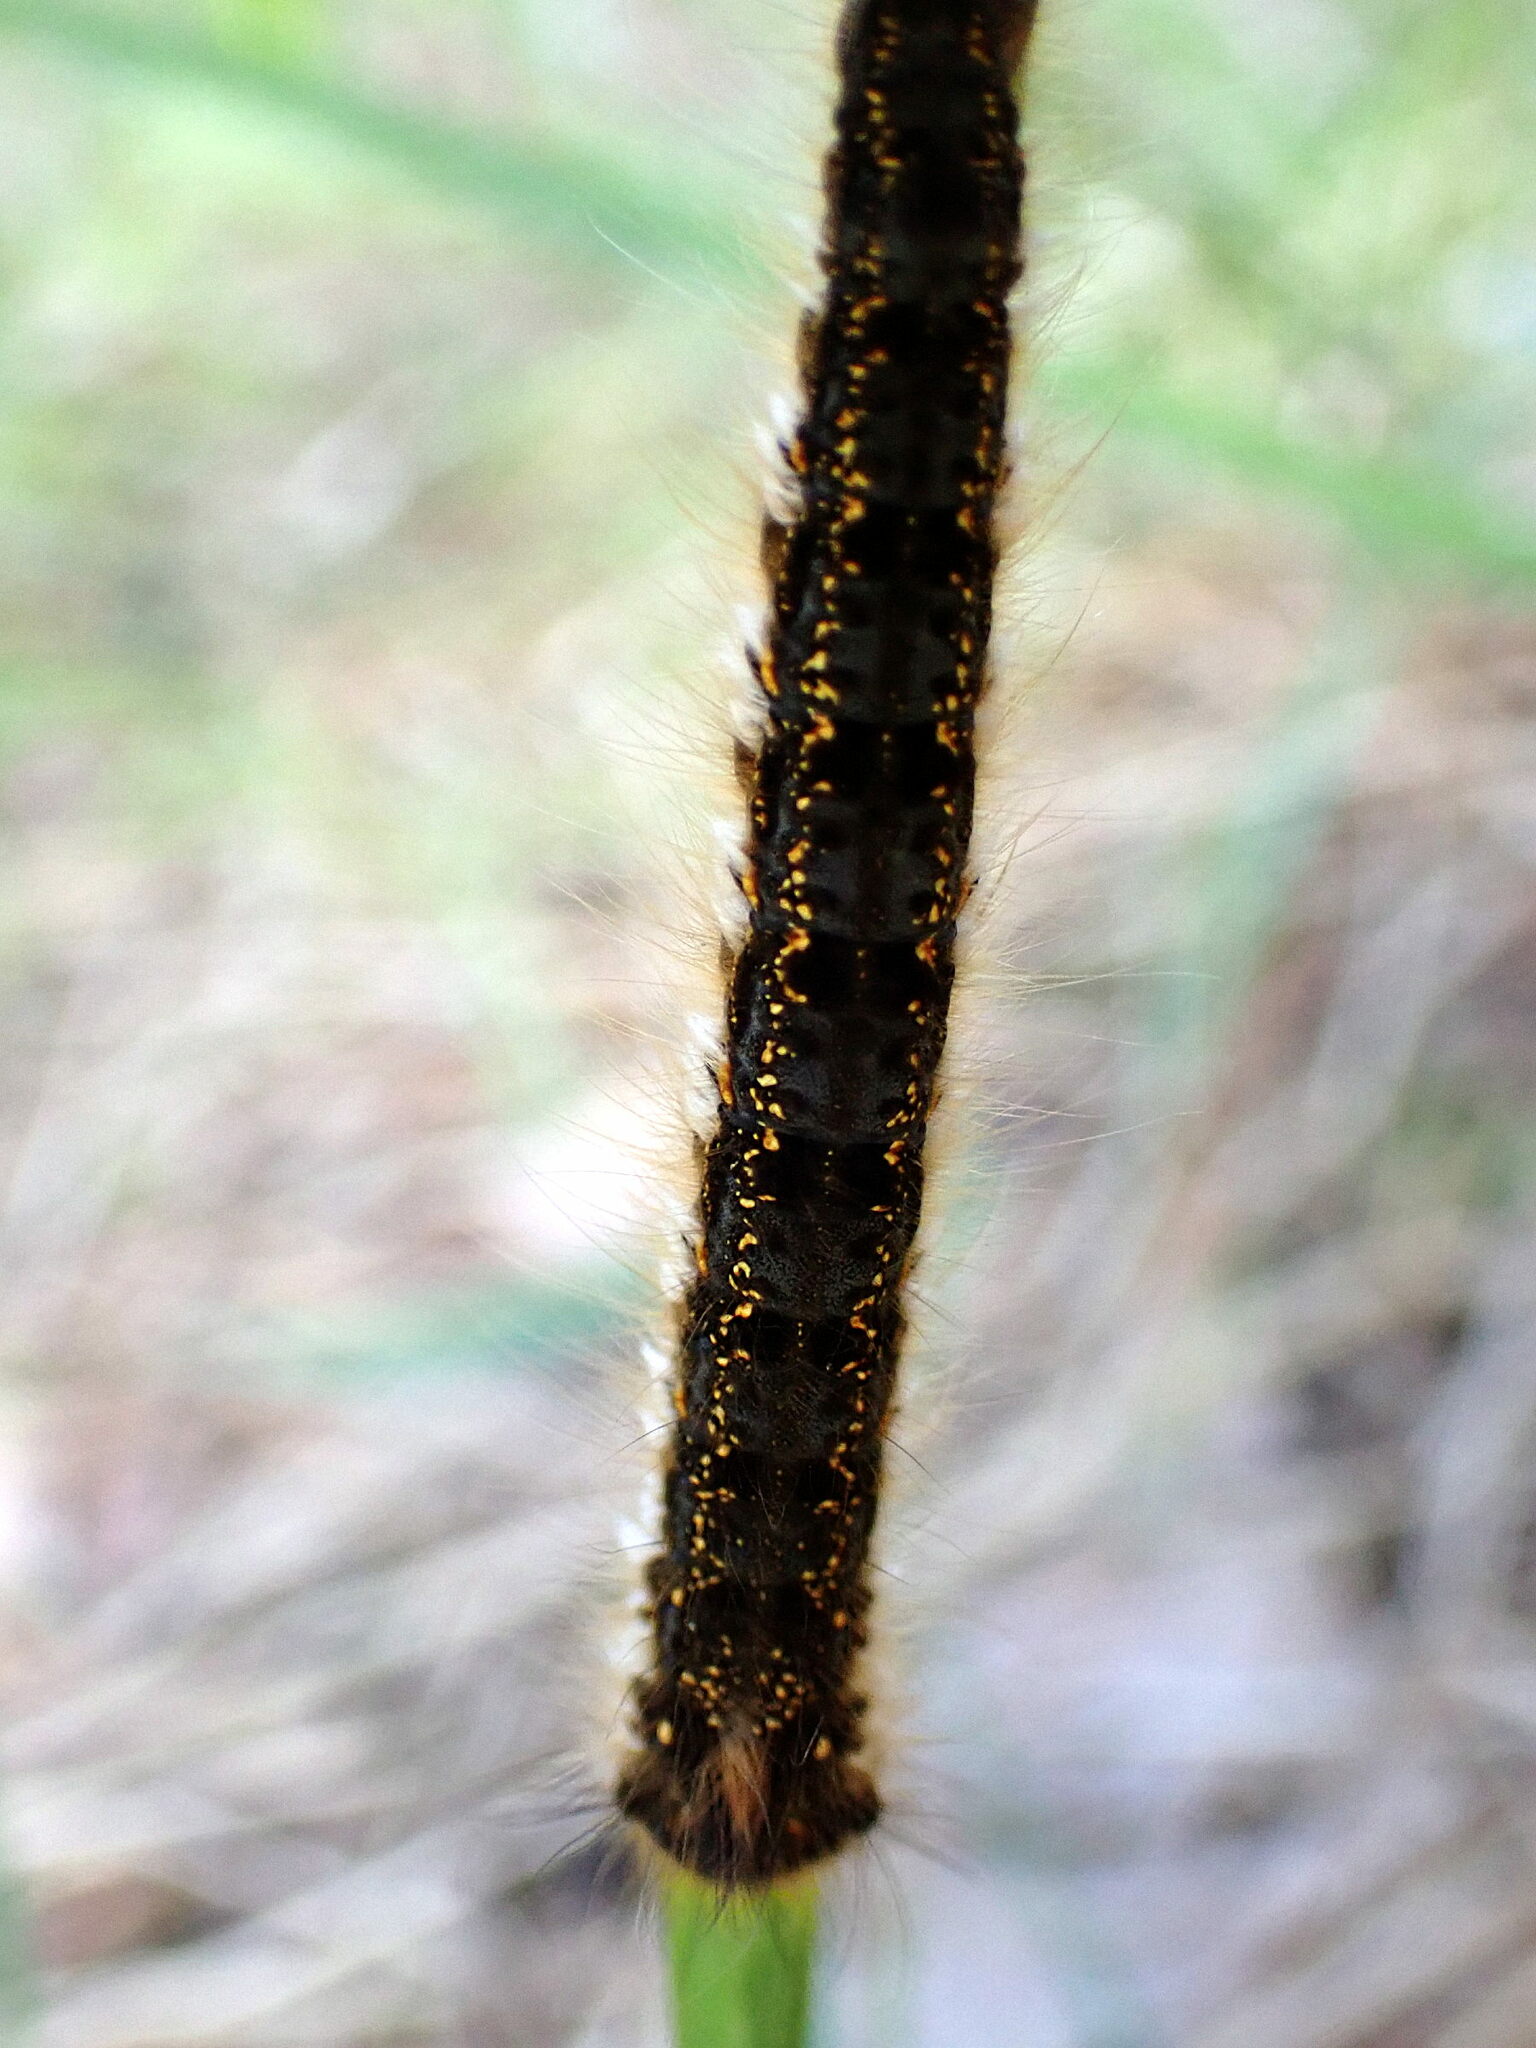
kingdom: Animalia
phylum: Arthropoda
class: Insecta
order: Lepidoptera
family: Lasiocampidae
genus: Euthrix
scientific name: Euthrix potatoria
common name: Drinker
